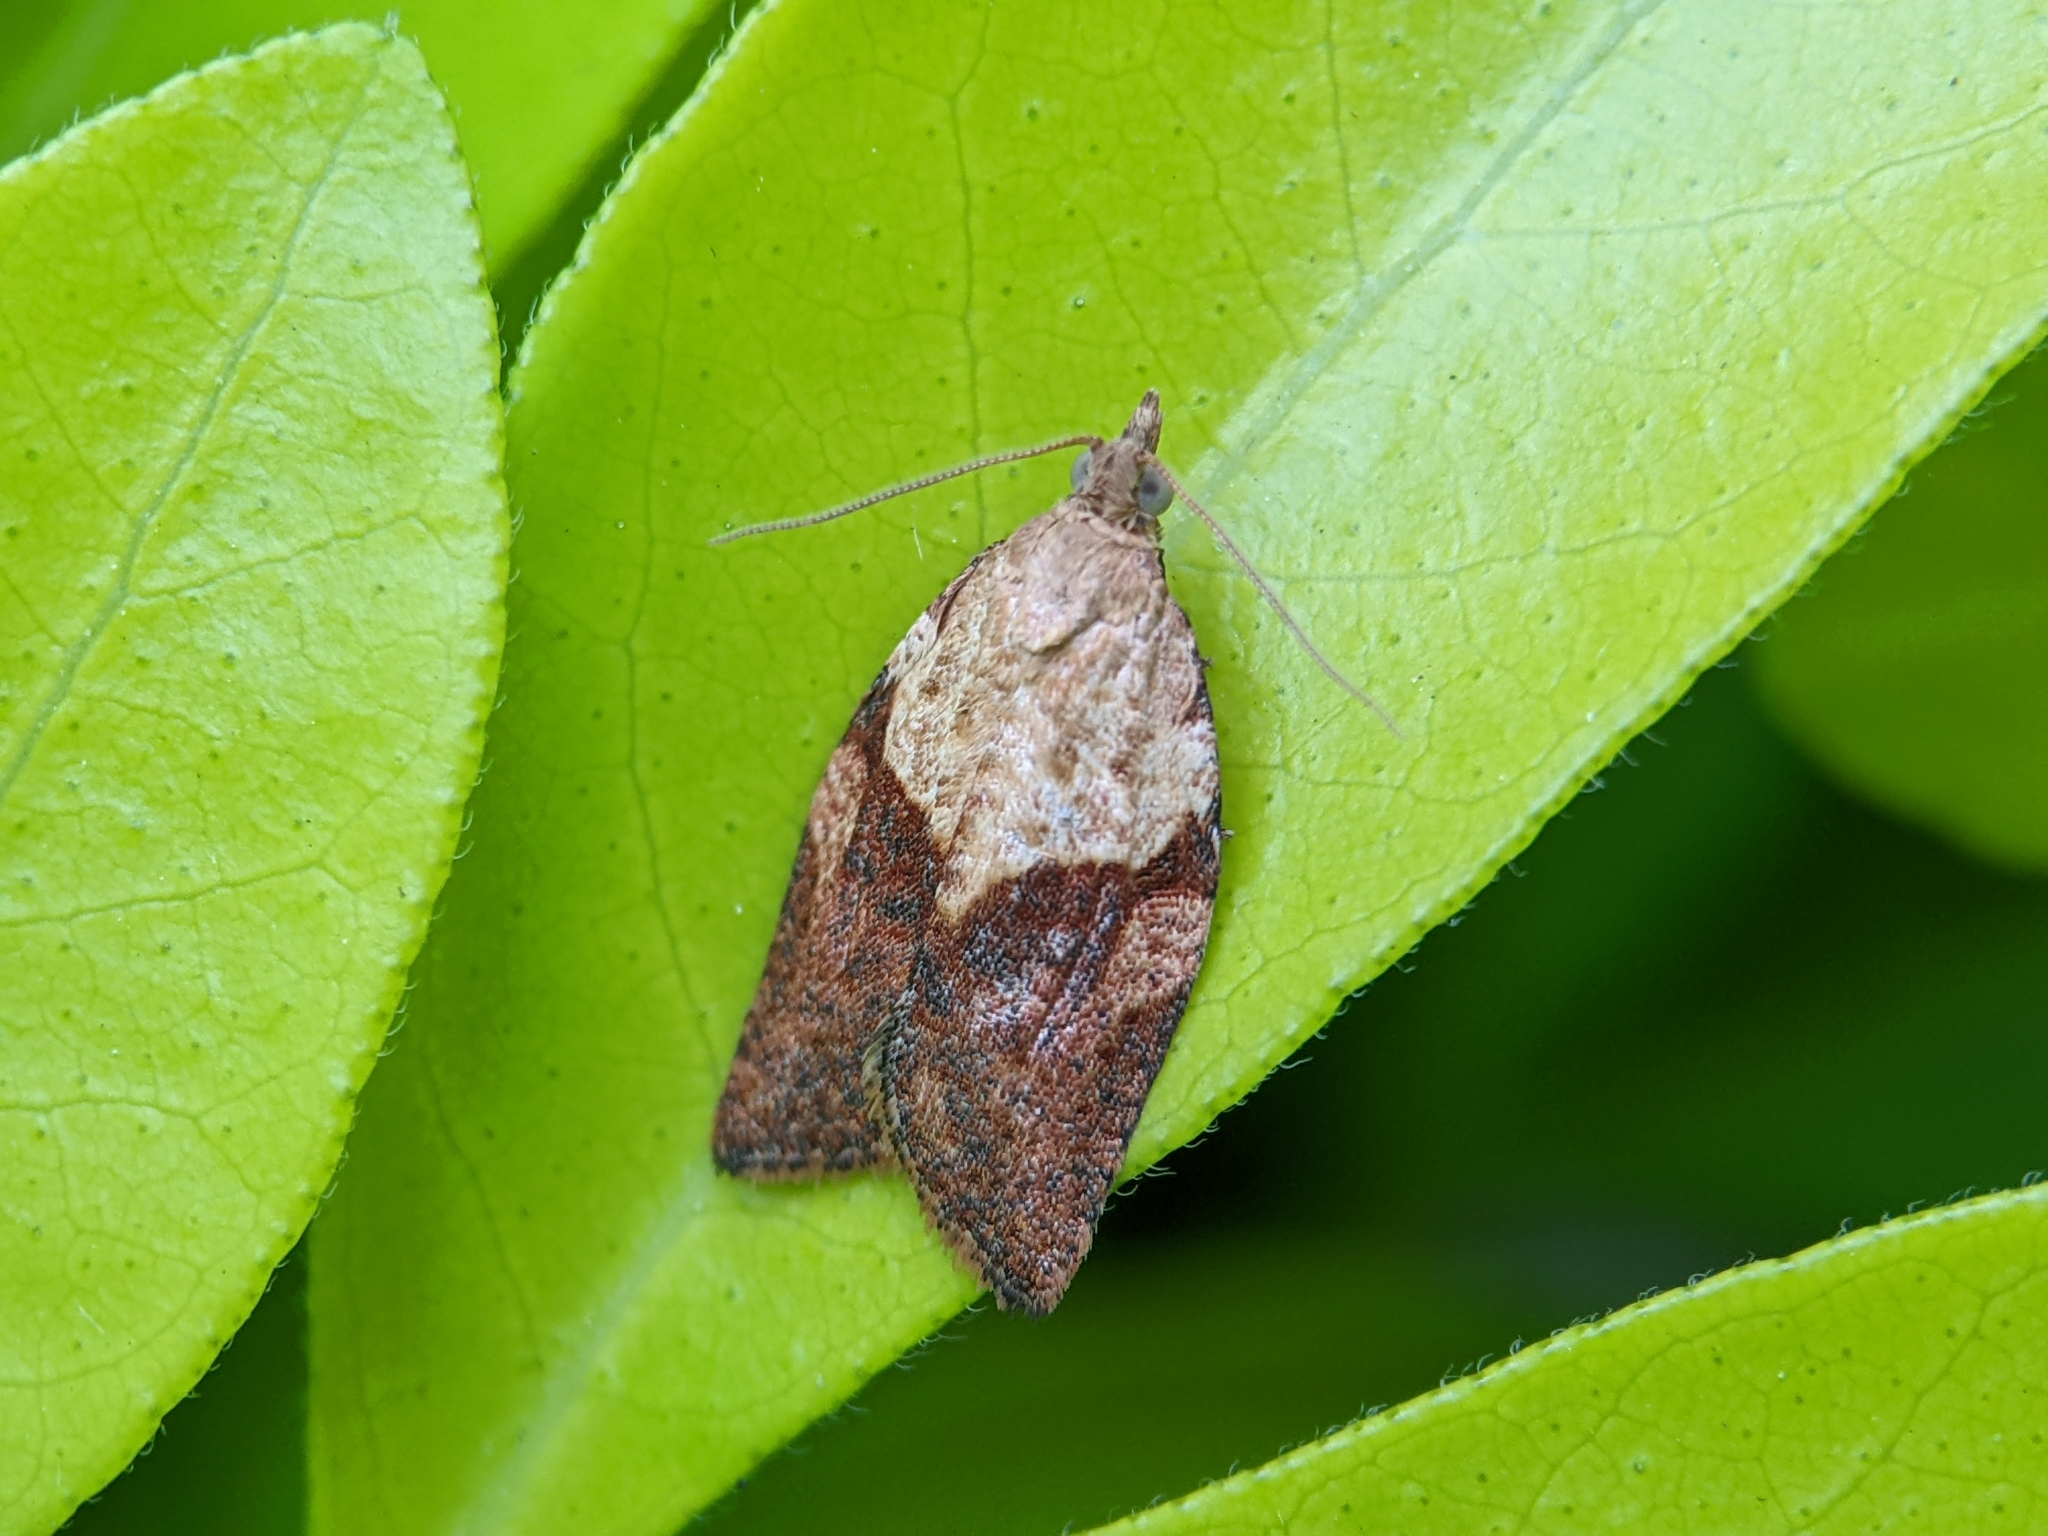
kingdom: Animalia
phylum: Arthropoda
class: Insecta
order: Lepidoptera
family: Tortricidae
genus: Epiphyas
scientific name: Epiphyas postvittana
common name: Light brown apple moth
